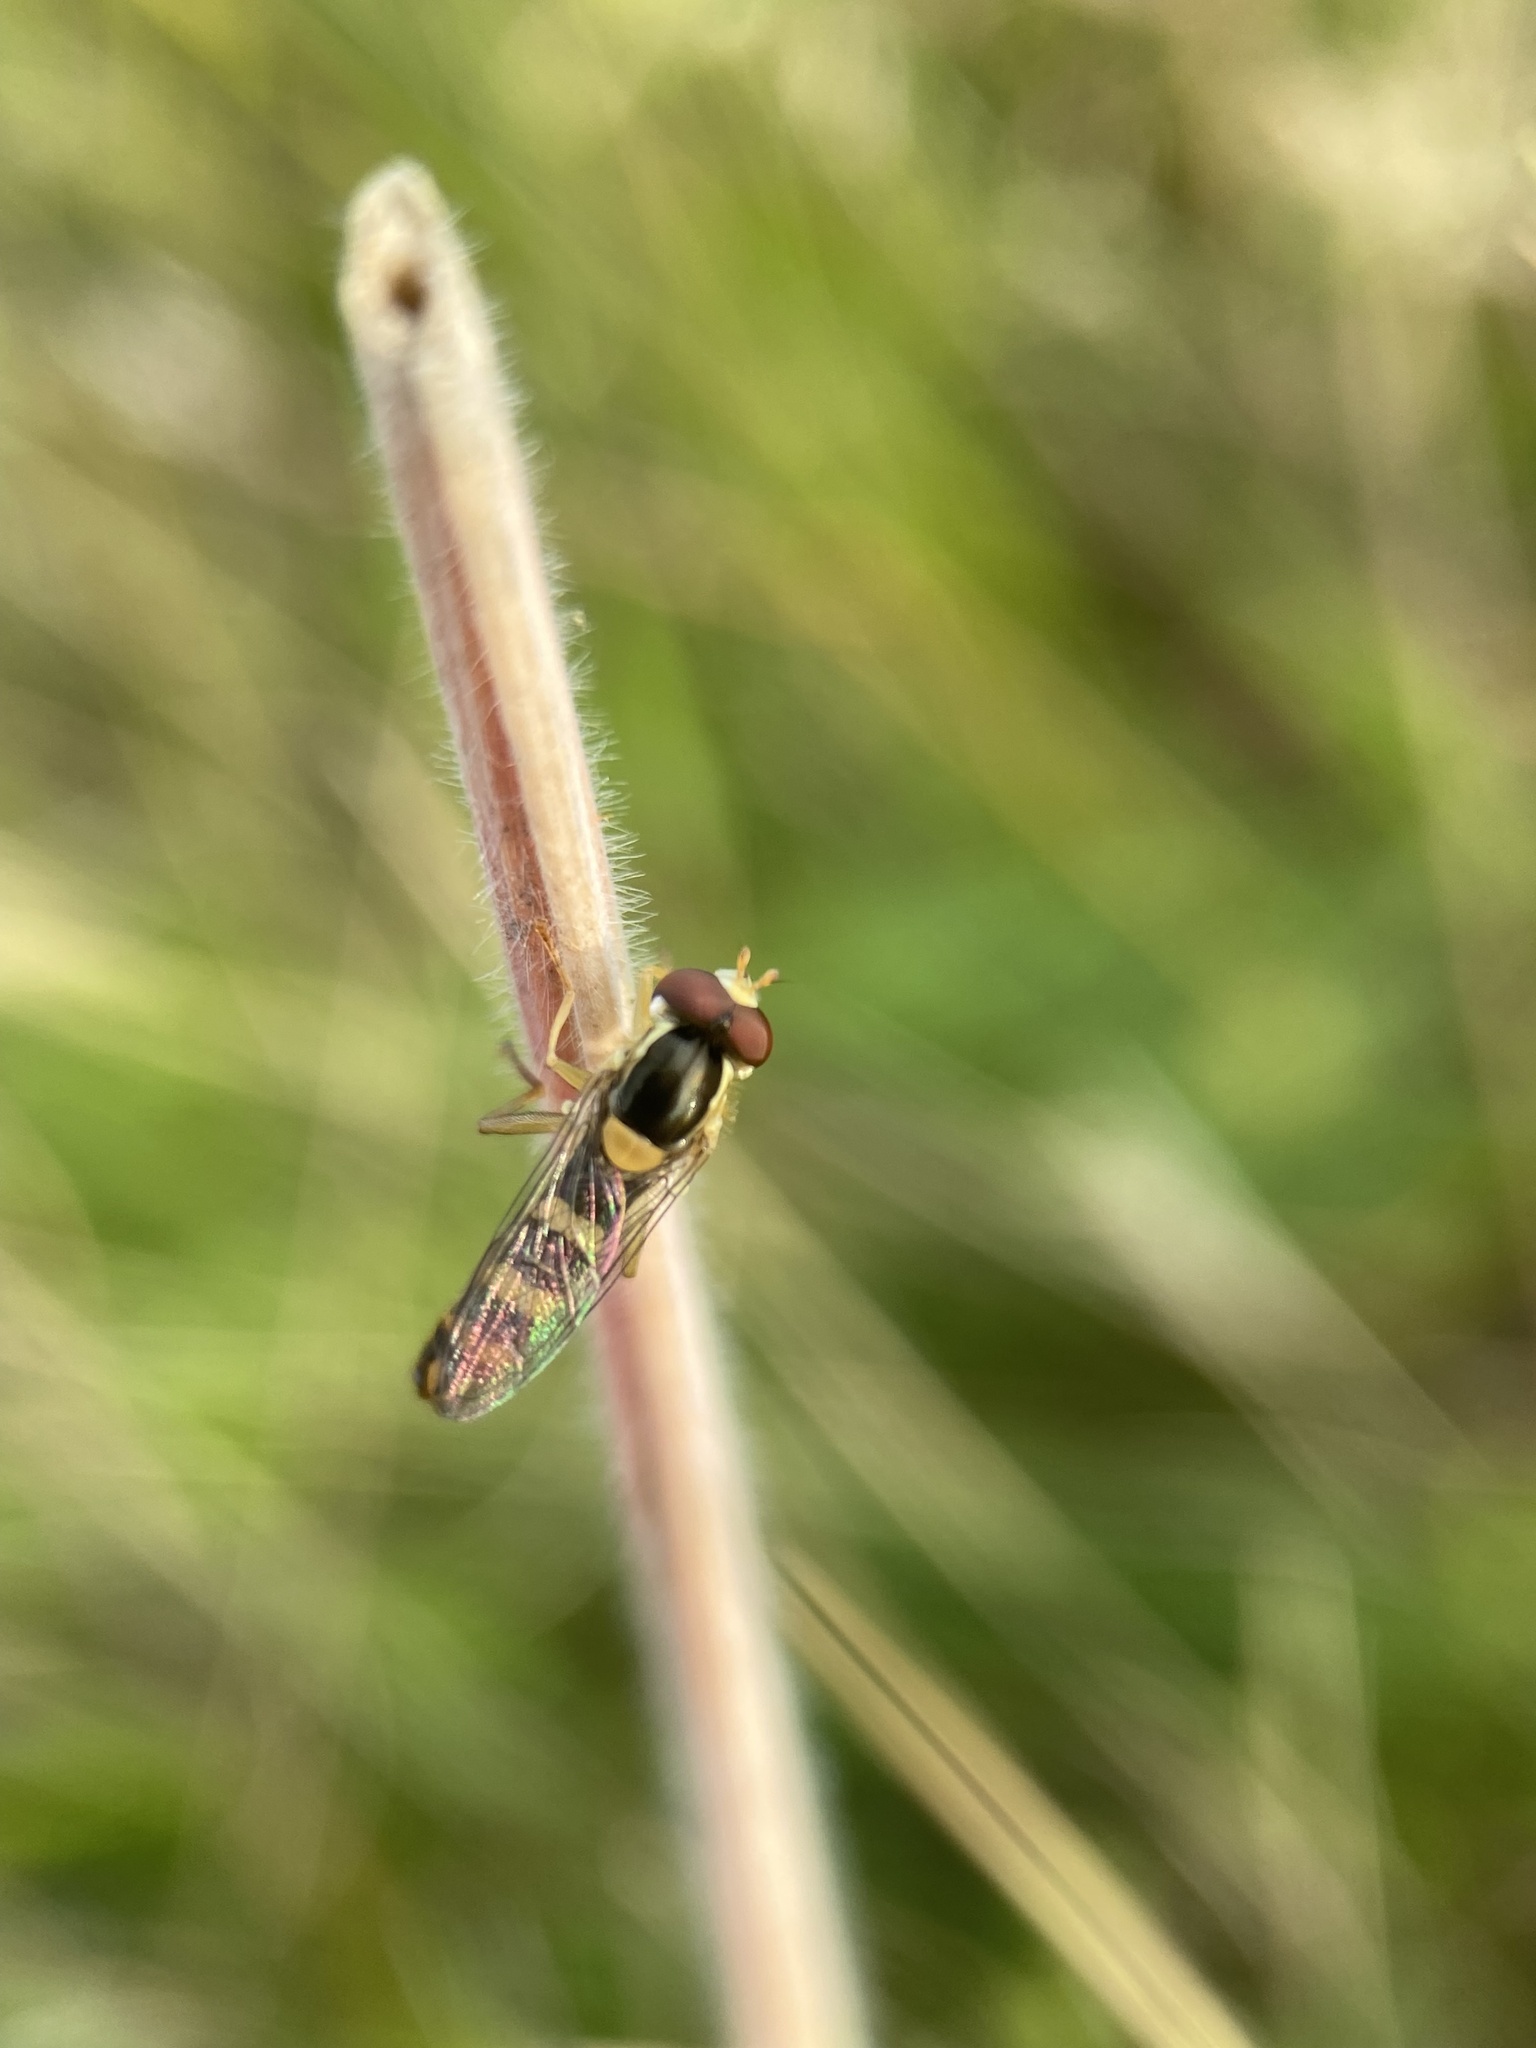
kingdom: Animalia
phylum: Arthropoda
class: Insecta
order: Diptera
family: Syrphidae
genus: Sphaerophoria
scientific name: Sphaerophoria scripta
